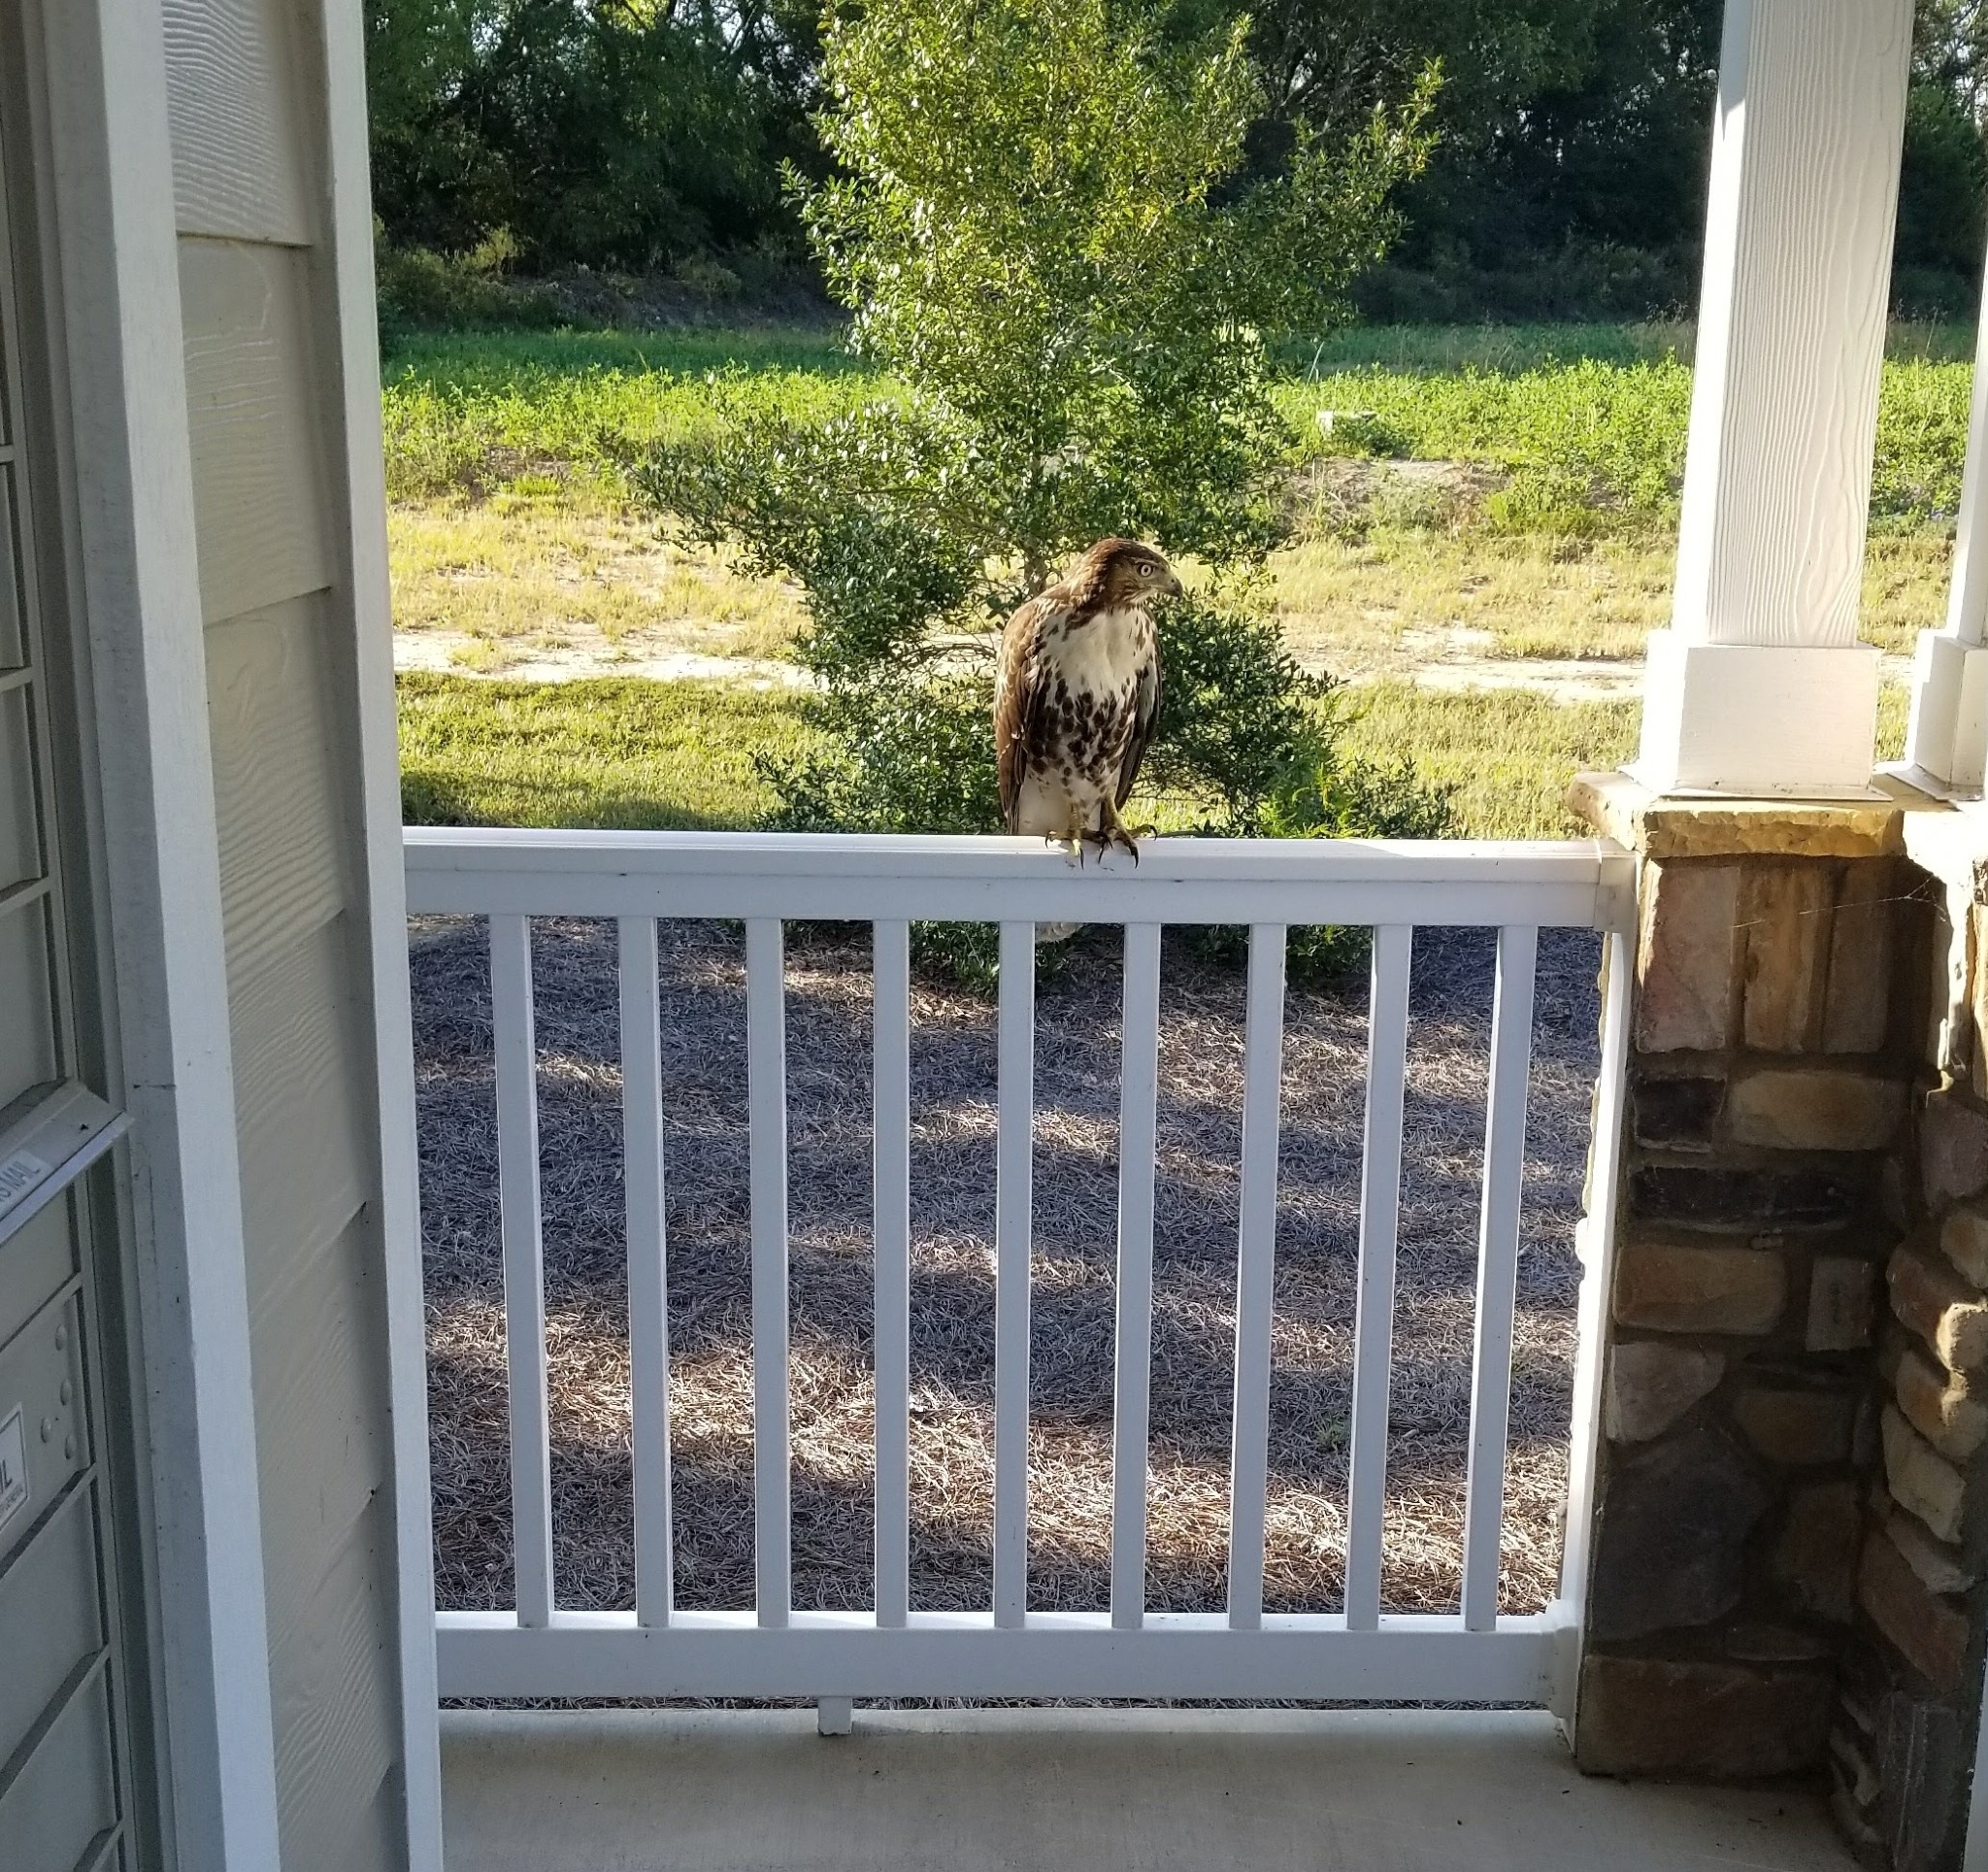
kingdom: Animalia
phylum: Chordata
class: Aves
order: Accipitriformes
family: Accipitridae
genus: Buteo
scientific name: Buteo jamaicensis
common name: Red-tailed hawk
